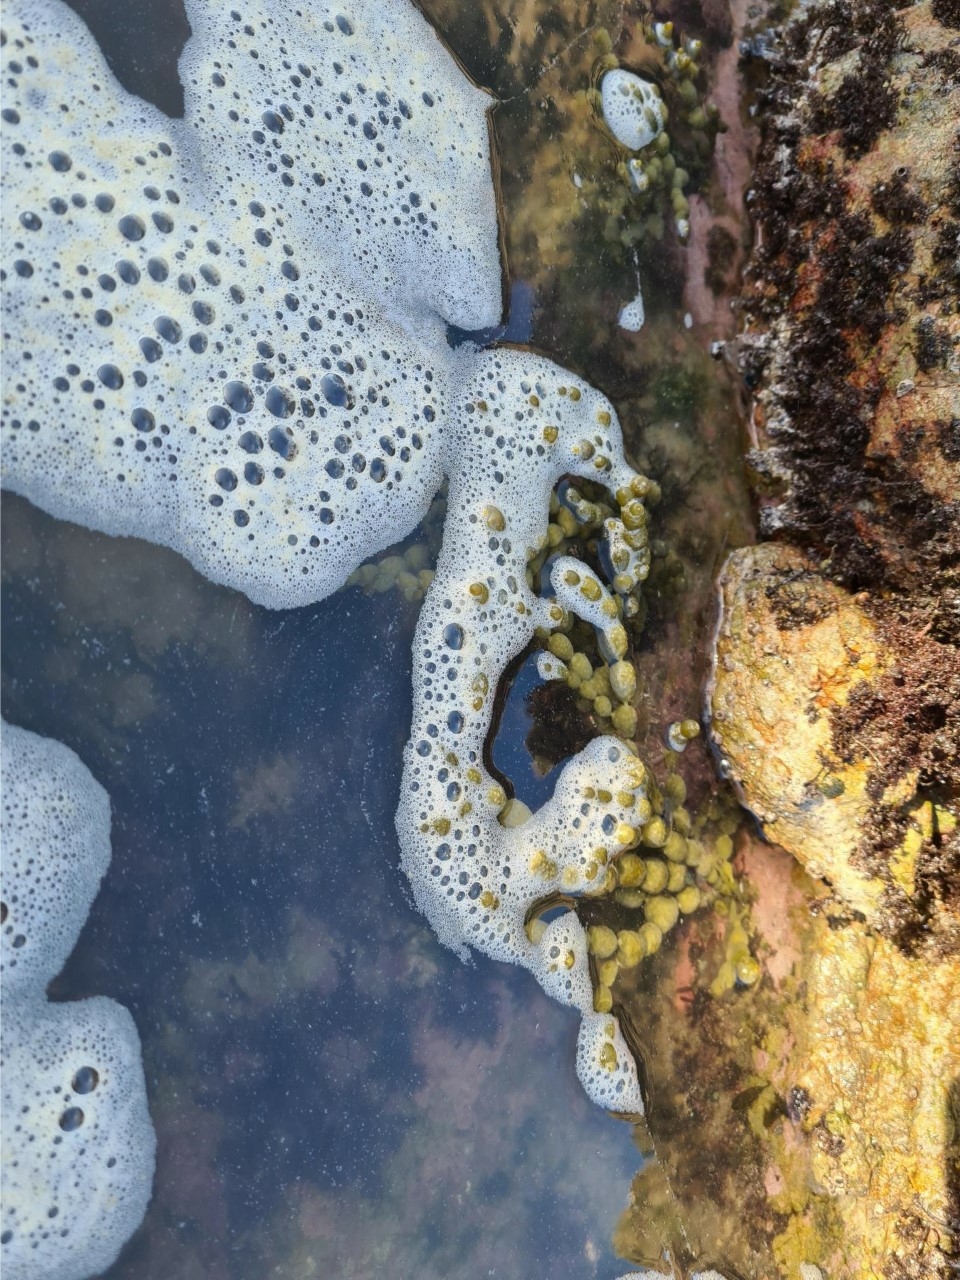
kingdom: Chromista
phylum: Ochrophyta
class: Phaeophyceae
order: Fucales
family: Hormosiraceae
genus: Hormosira
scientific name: Hormosira banksii
